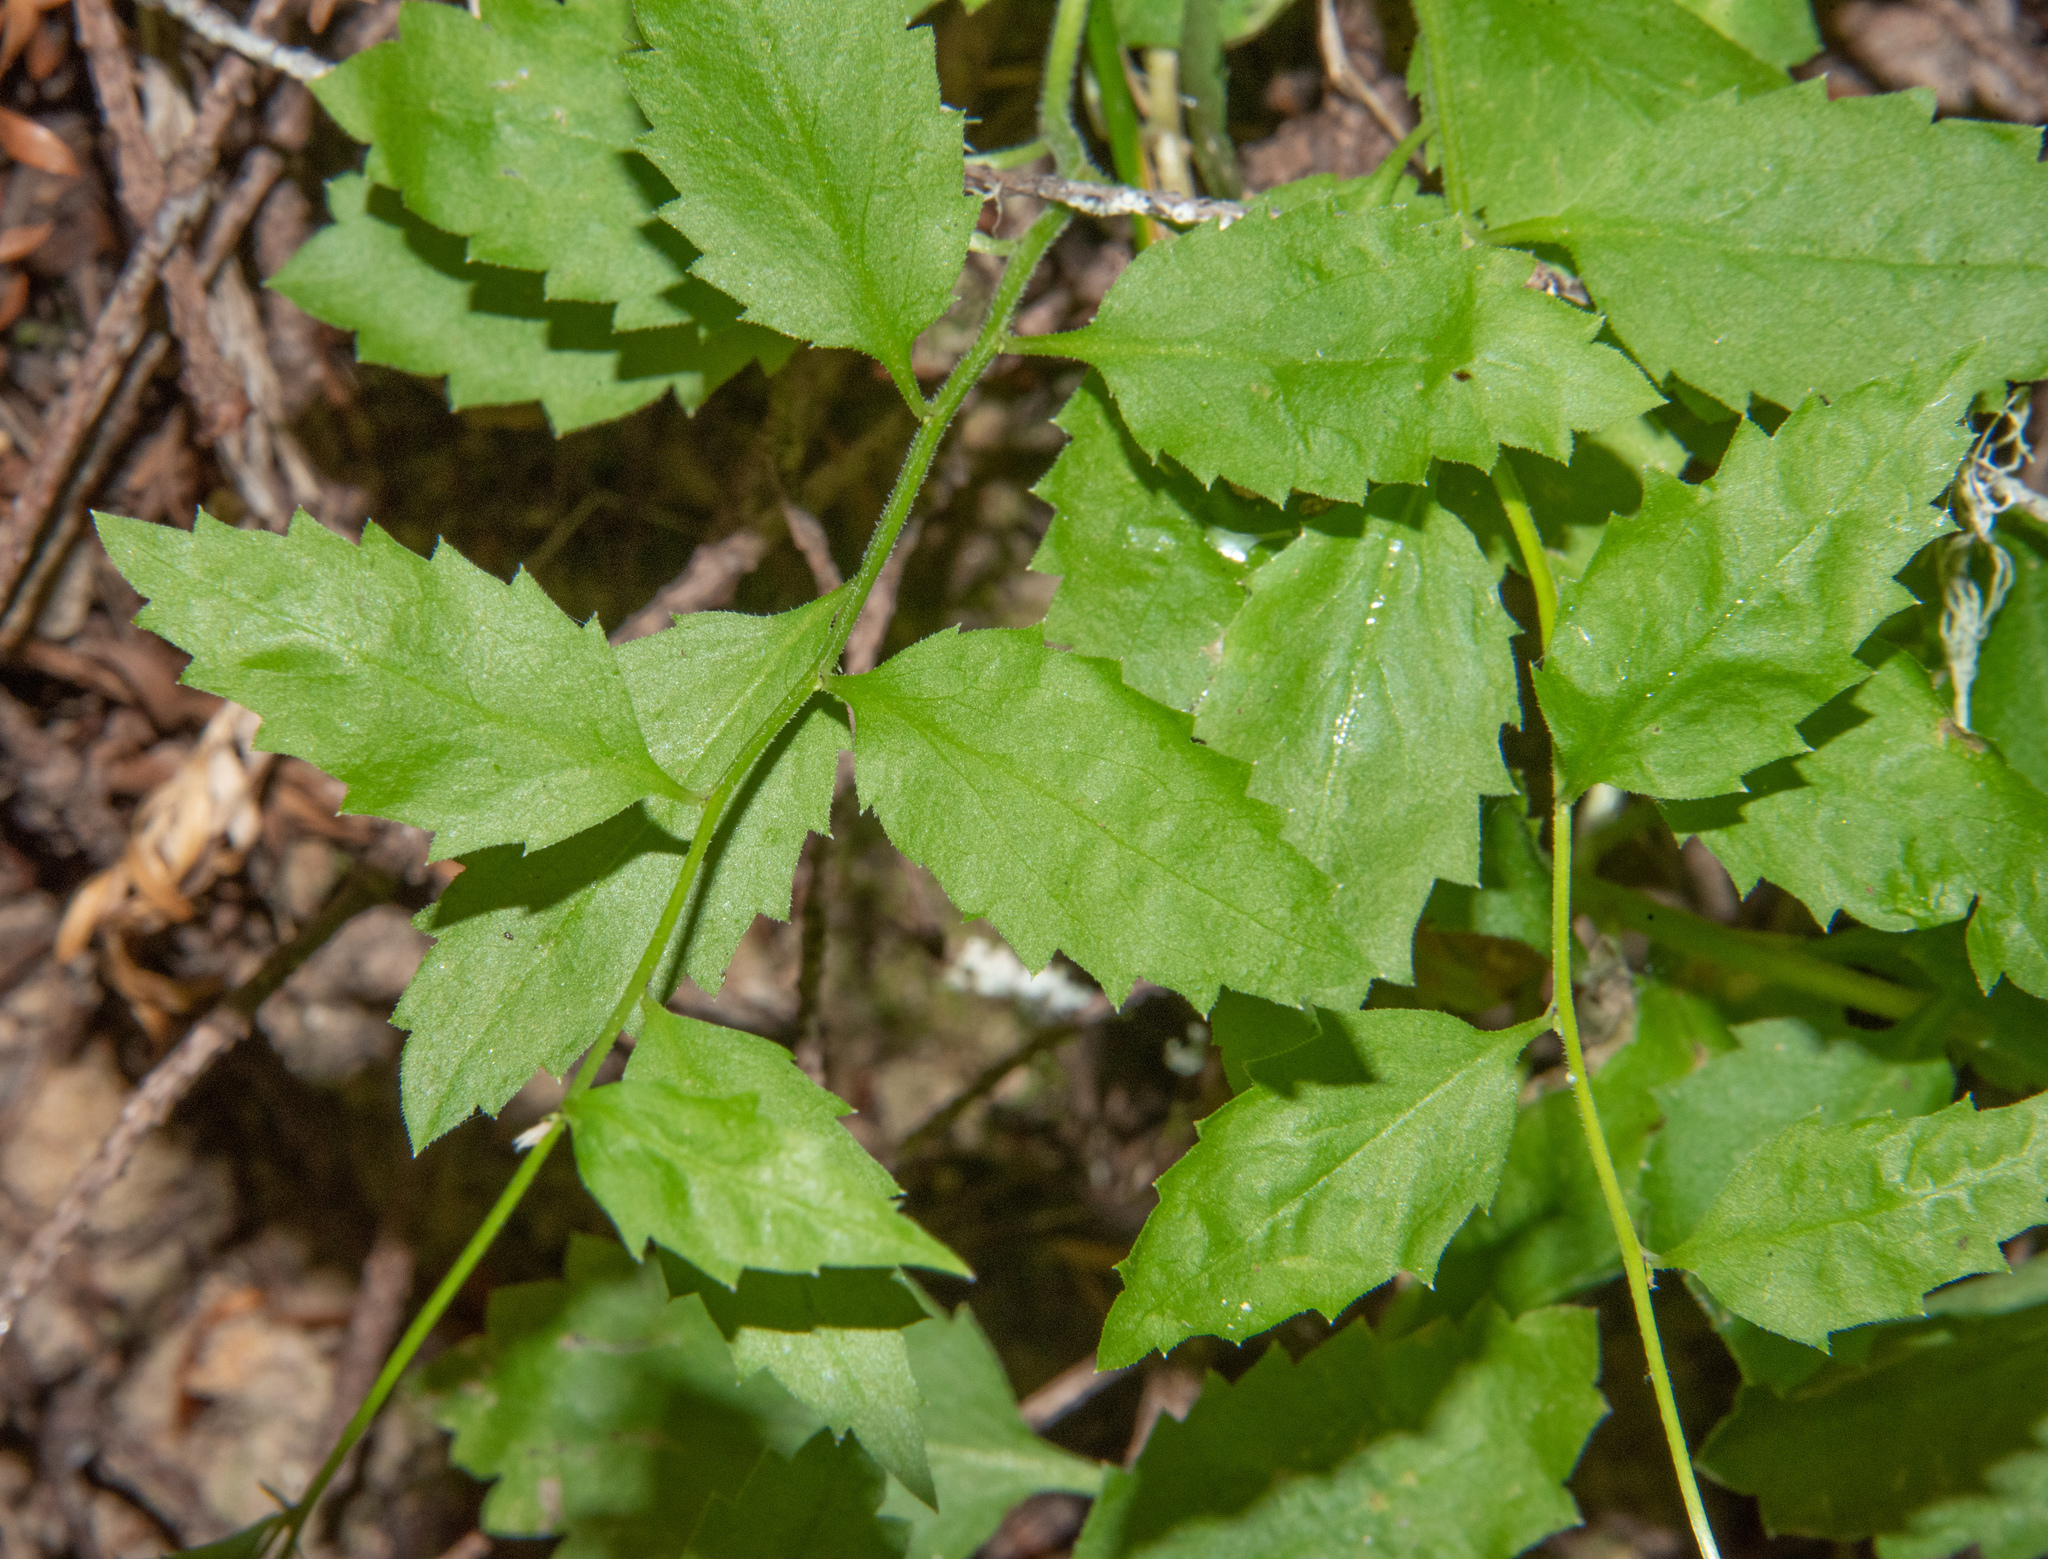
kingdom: Plantae
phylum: Tracheophyta
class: Magnoliopsida
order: Asterales
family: Campanulaceae
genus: Smithiastrum
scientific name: Smithiastrum prenanthoides
